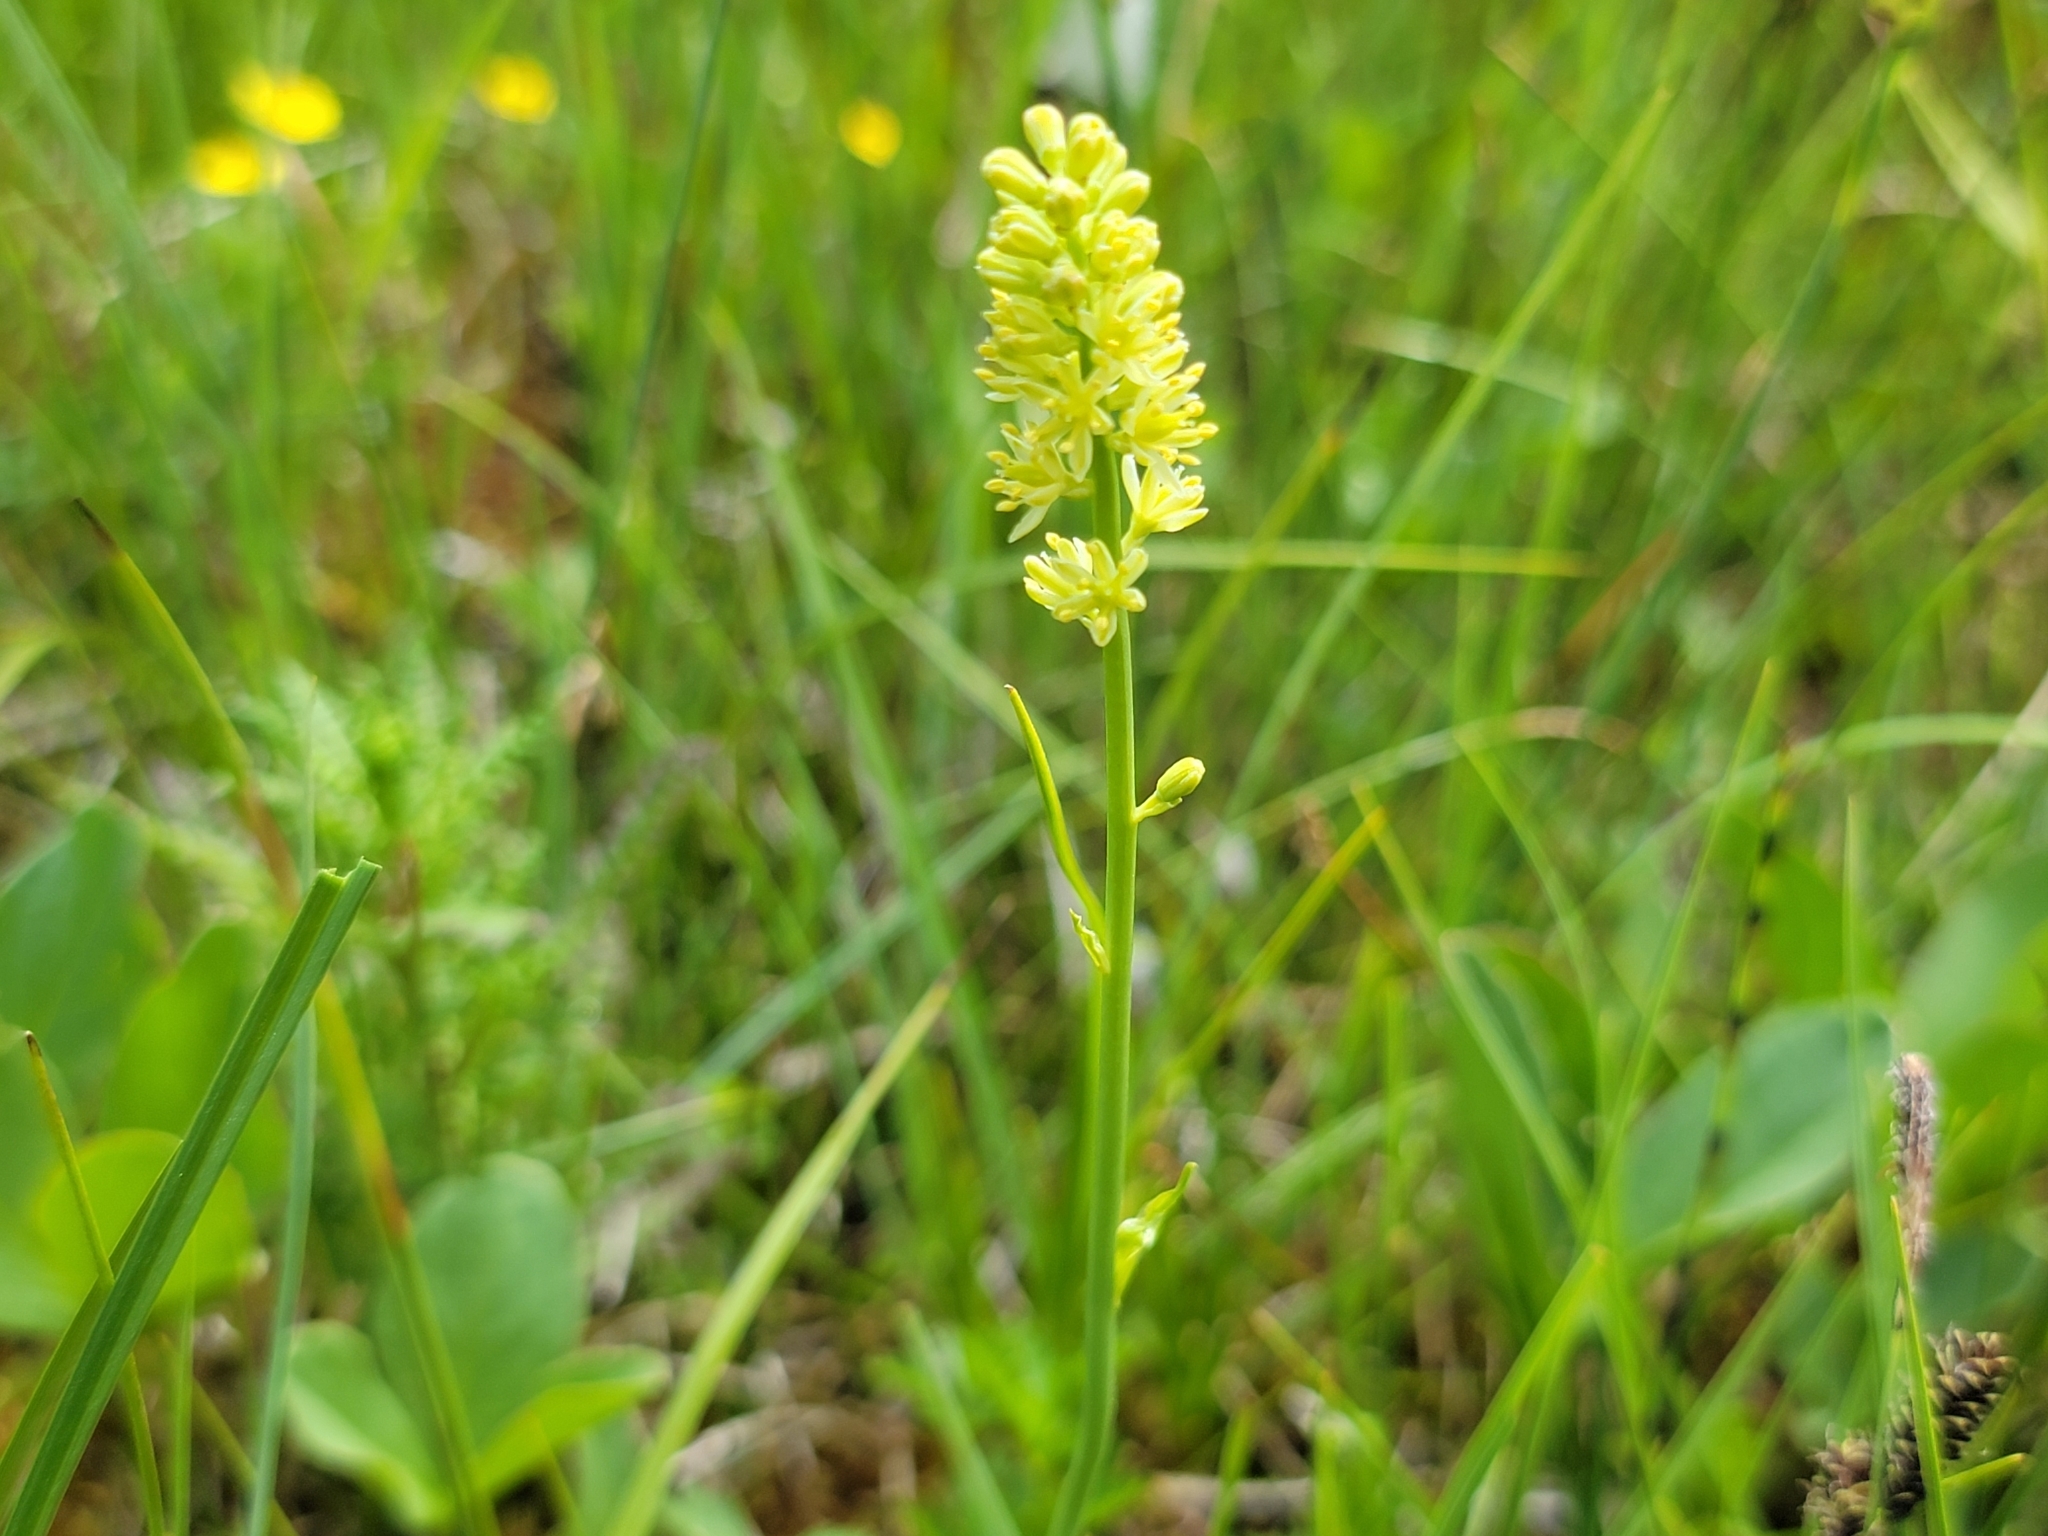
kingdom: Plantae
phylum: Tracheophyta
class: Liliopsida
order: Alismatales
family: Tofieldiaceae
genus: Tofieldia
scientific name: Tofieldia calyculata
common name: German-asphodel
